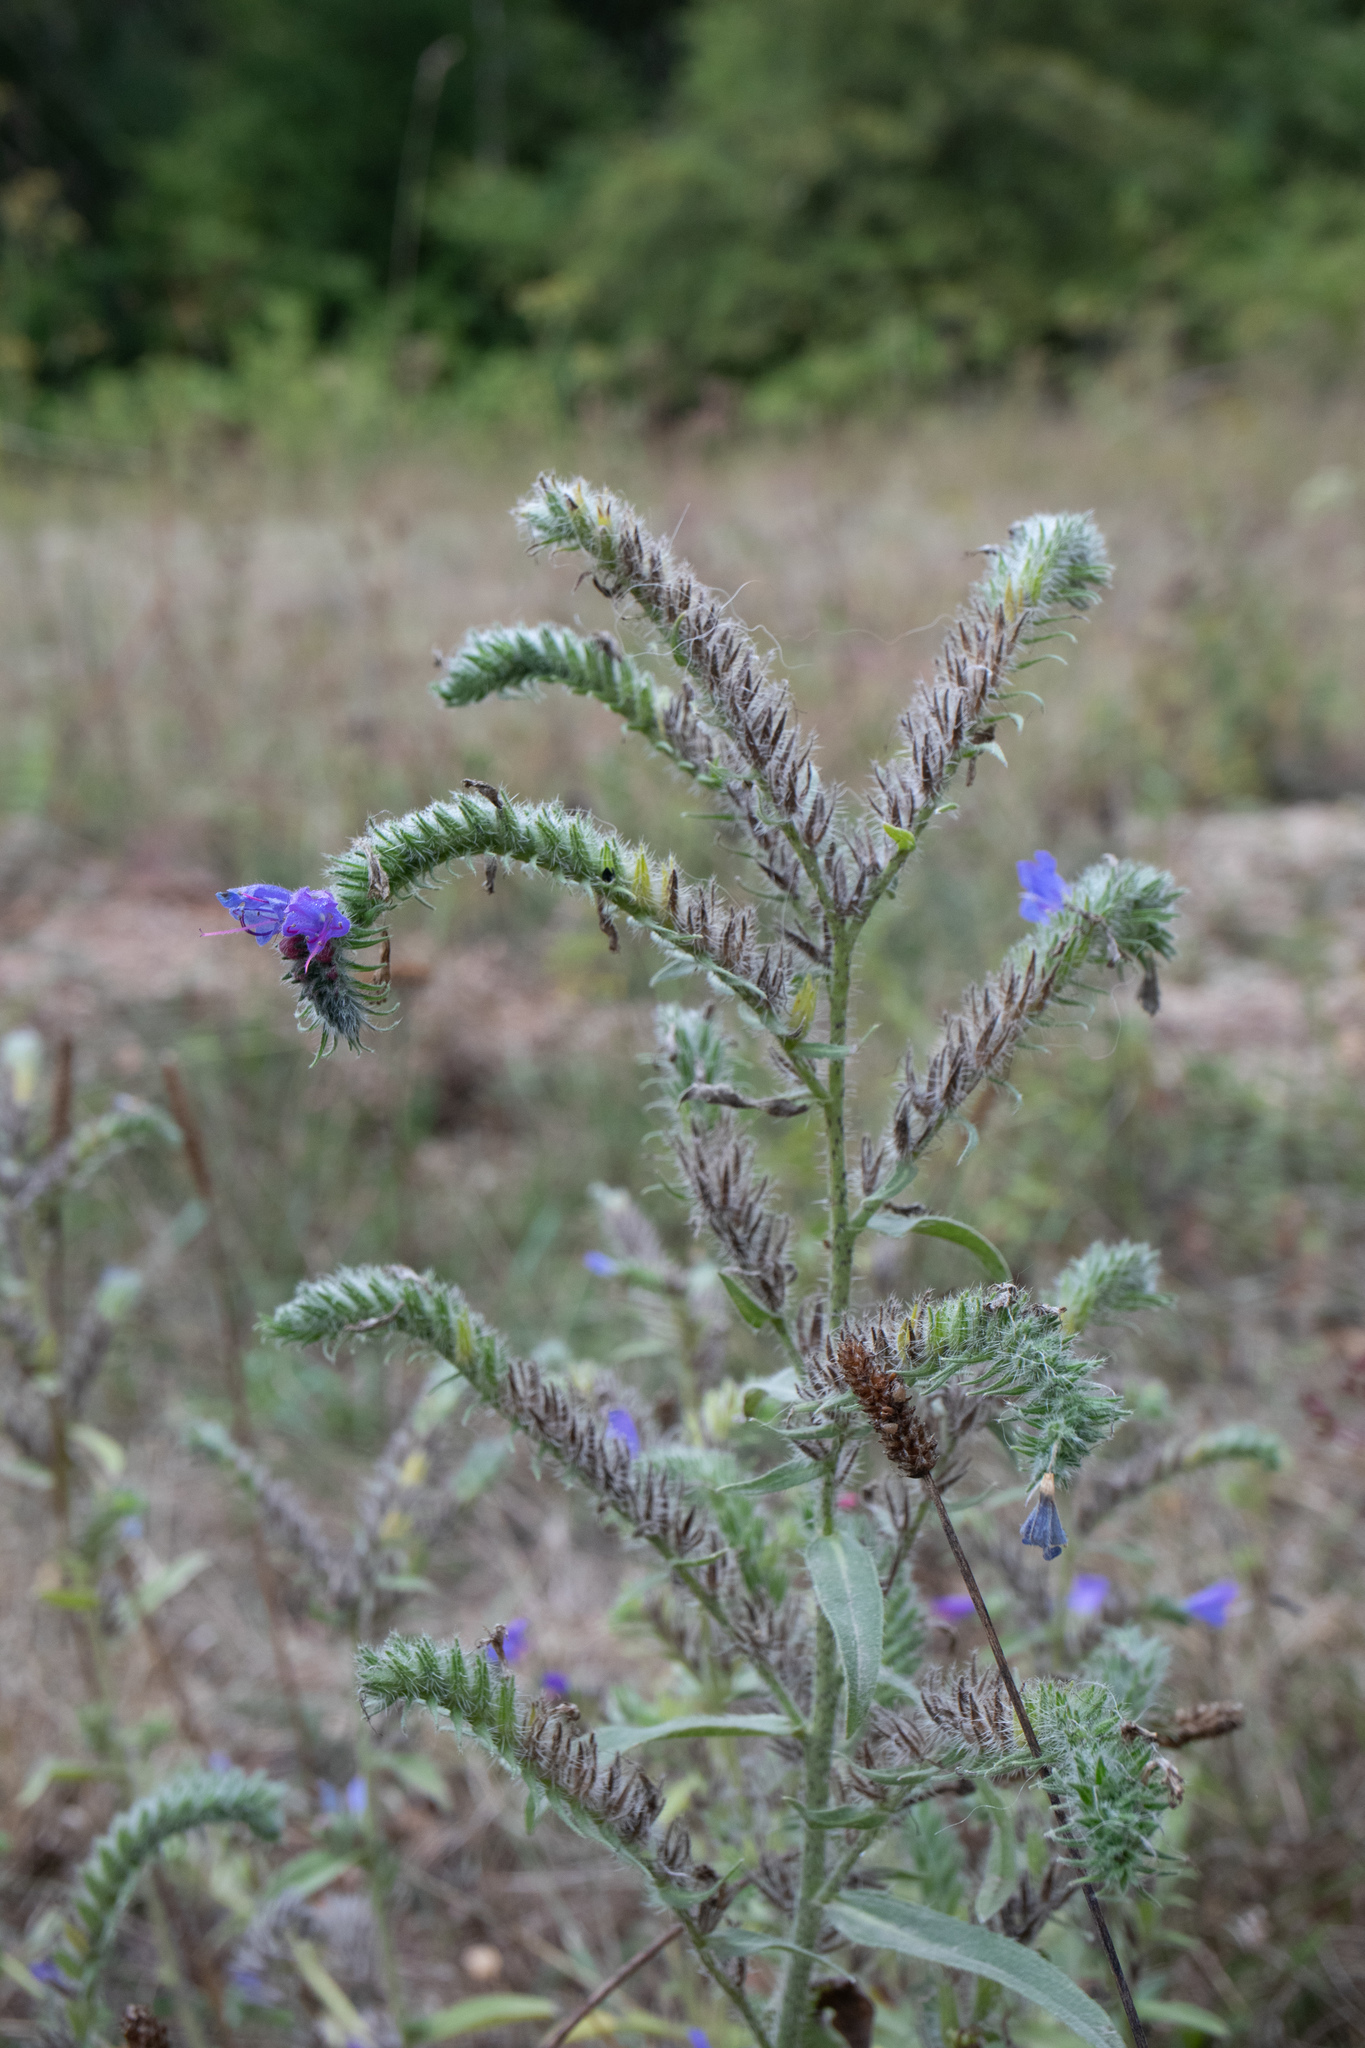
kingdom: Plantae
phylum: Tracheophyta
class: Magnoliopsida
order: Boraginales
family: Boraginaceae
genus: Echium
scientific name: Echium vulgare
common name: Common viper's bugloss
